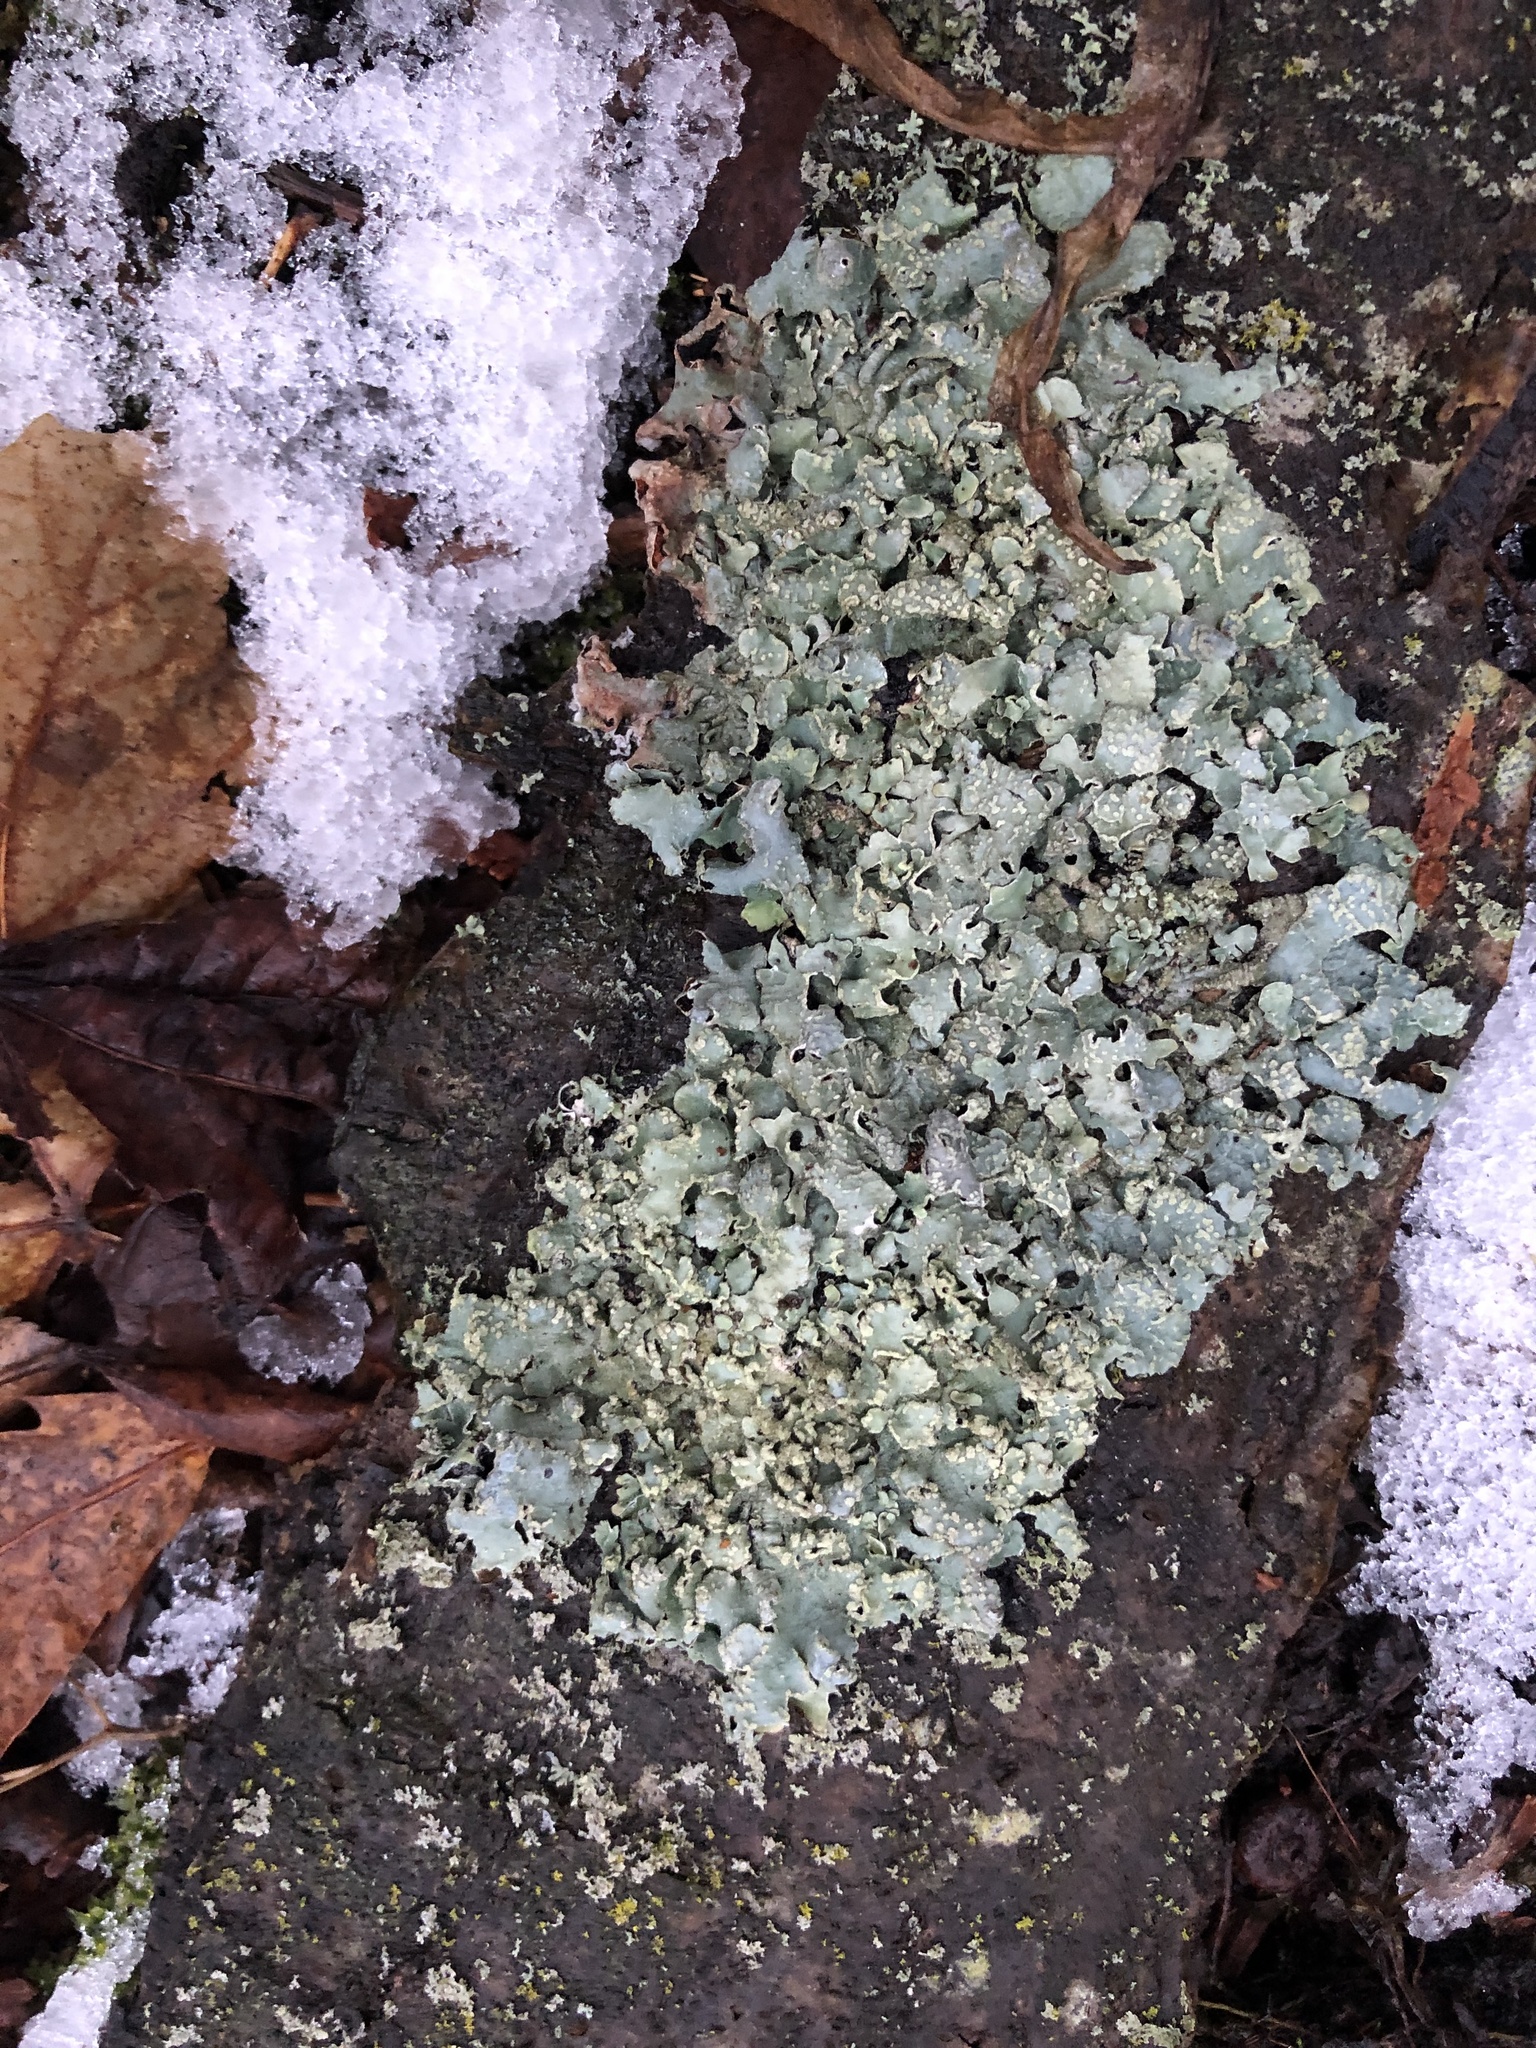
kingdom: Fungi
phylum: Ascomycota
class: Lecanoromycetes
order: Lecanorales
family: Parmeliaceae
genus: Parmelia
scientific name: Parmelia sulcata
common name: Netted shield lichen
